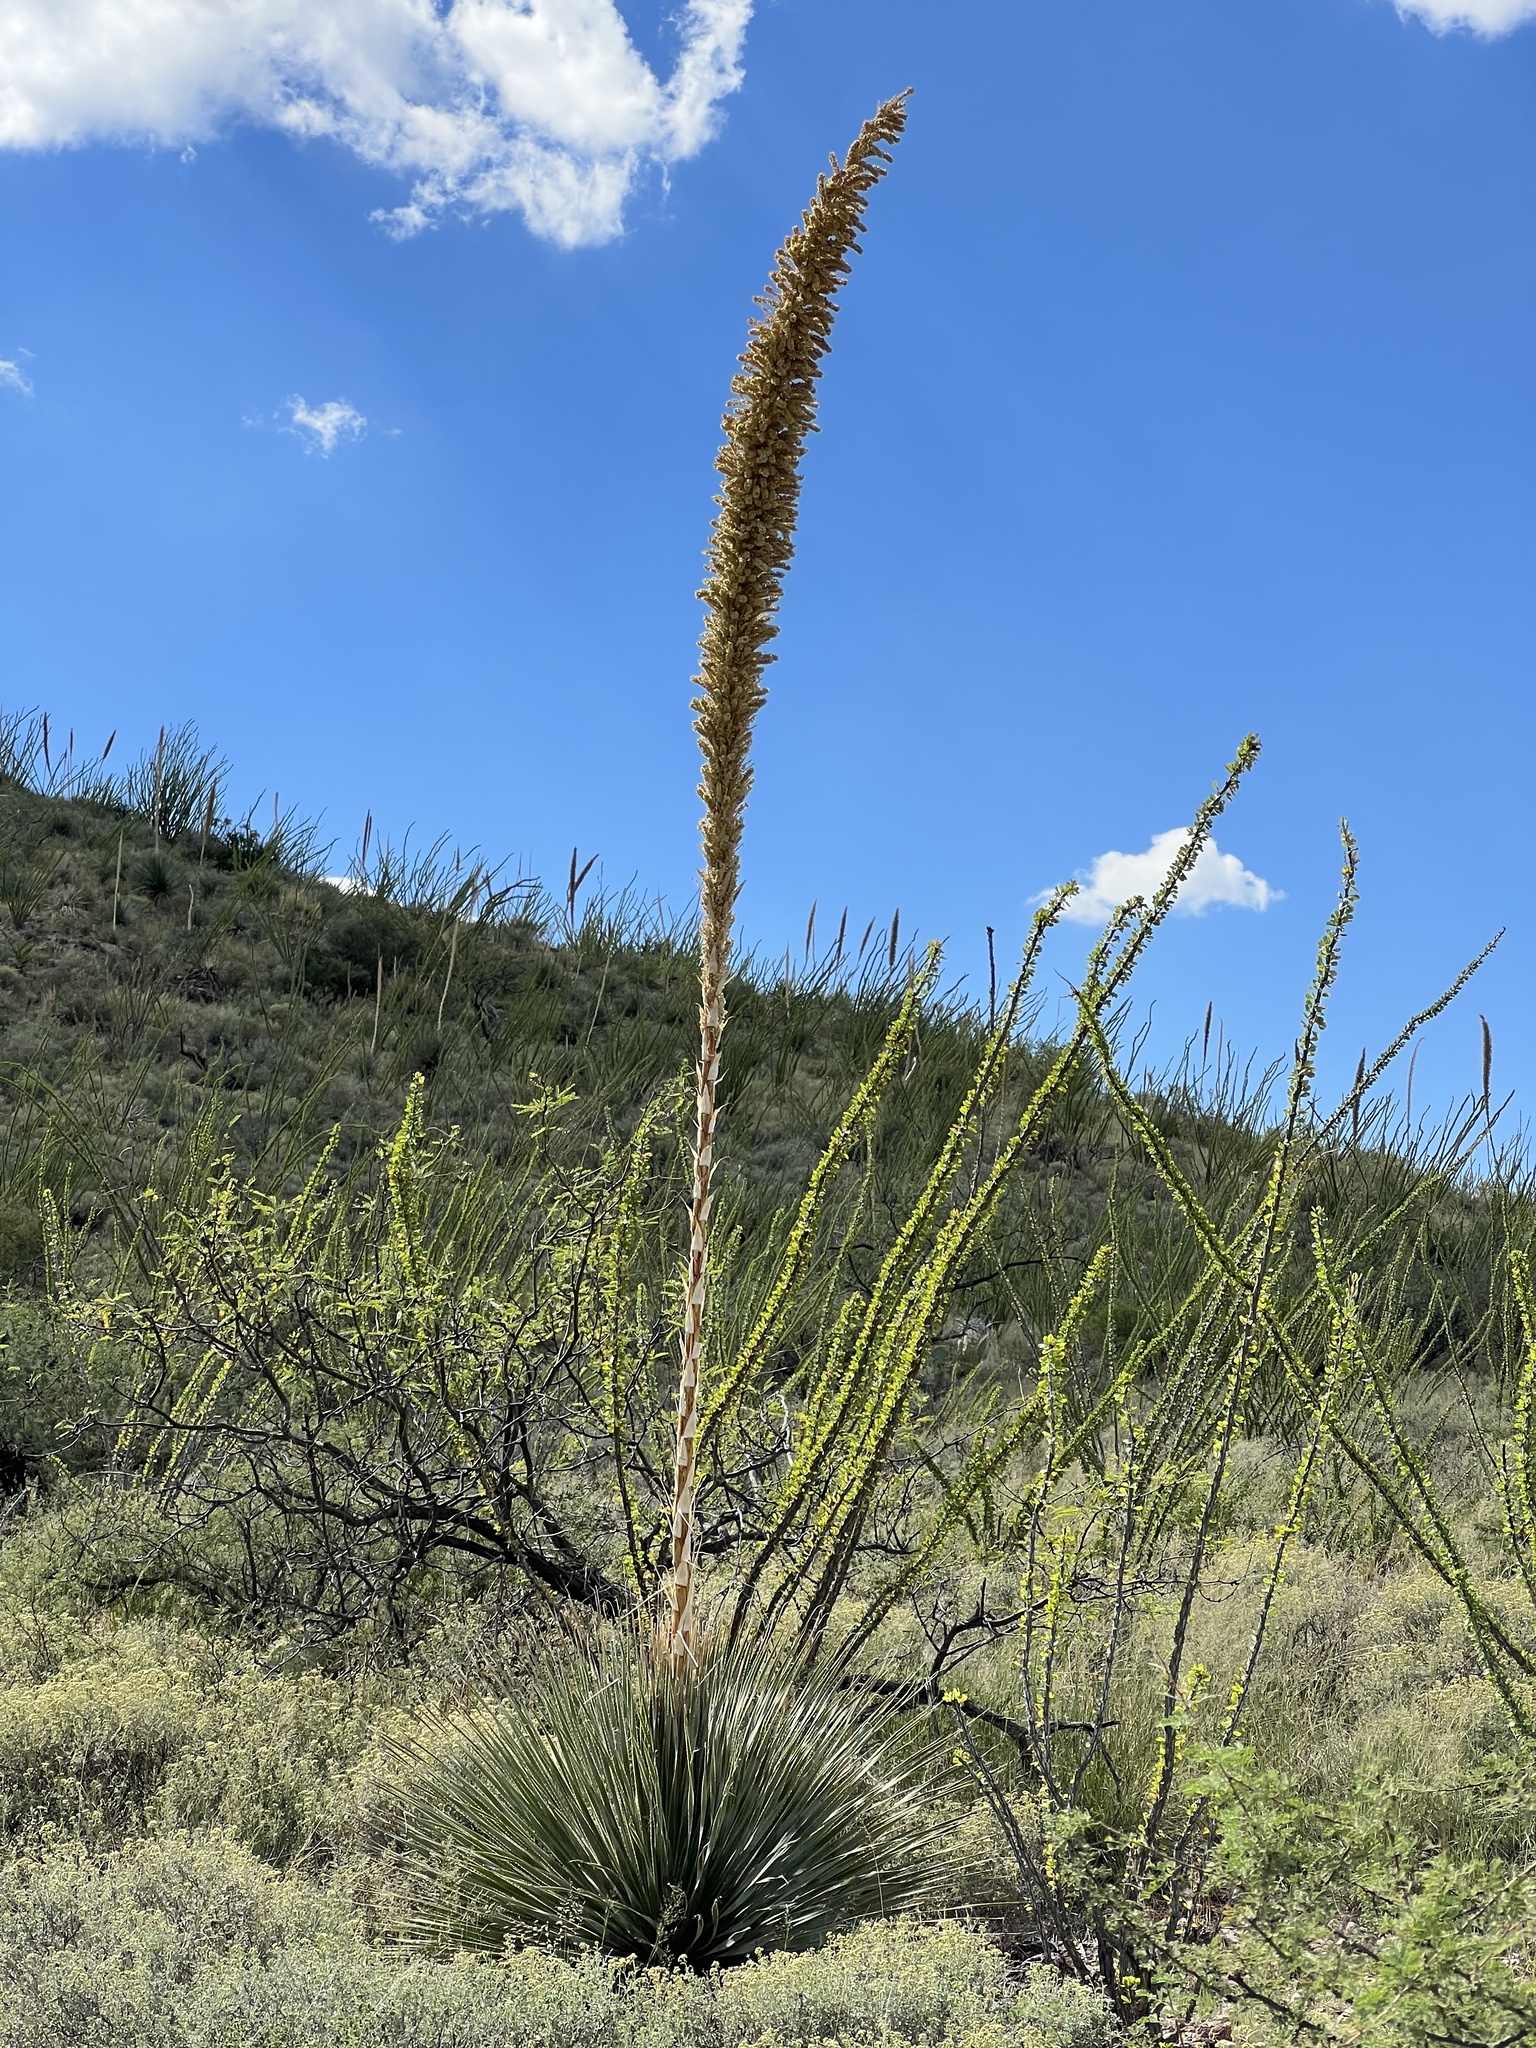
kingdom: Plantae
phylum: Tracheophyta
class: Liliopsida
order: Asparagales
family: Asparagaceae
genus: Dasylirion
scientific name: Dasylirion wheeleri
